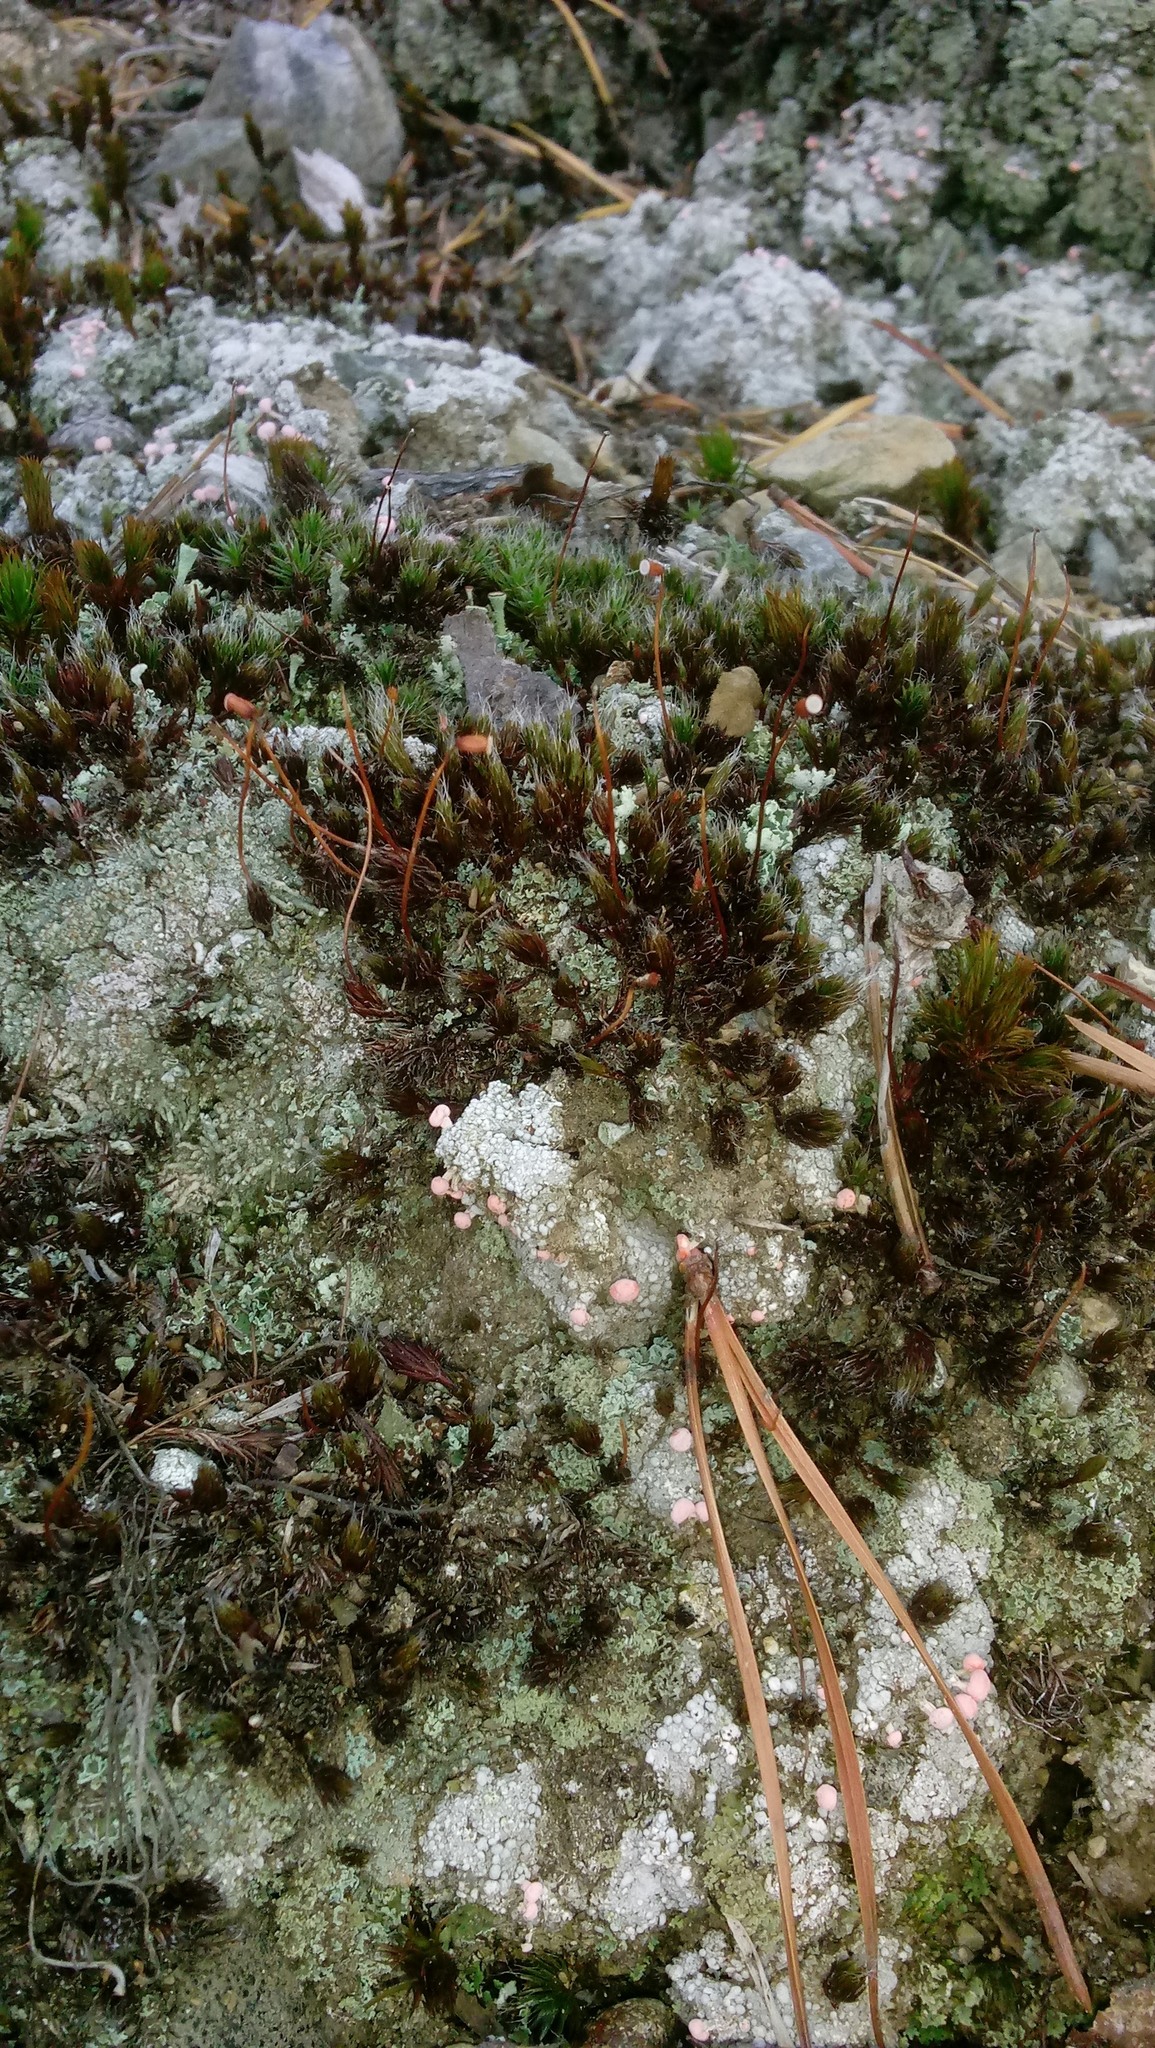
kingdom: Fungi
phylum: Ascomycota
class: Lecanoromycetes
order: Pertusariales
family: Icmadophilaceae
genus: Dibaeis
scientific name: Dibaeis baeomyces
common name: Pink earth lichen
